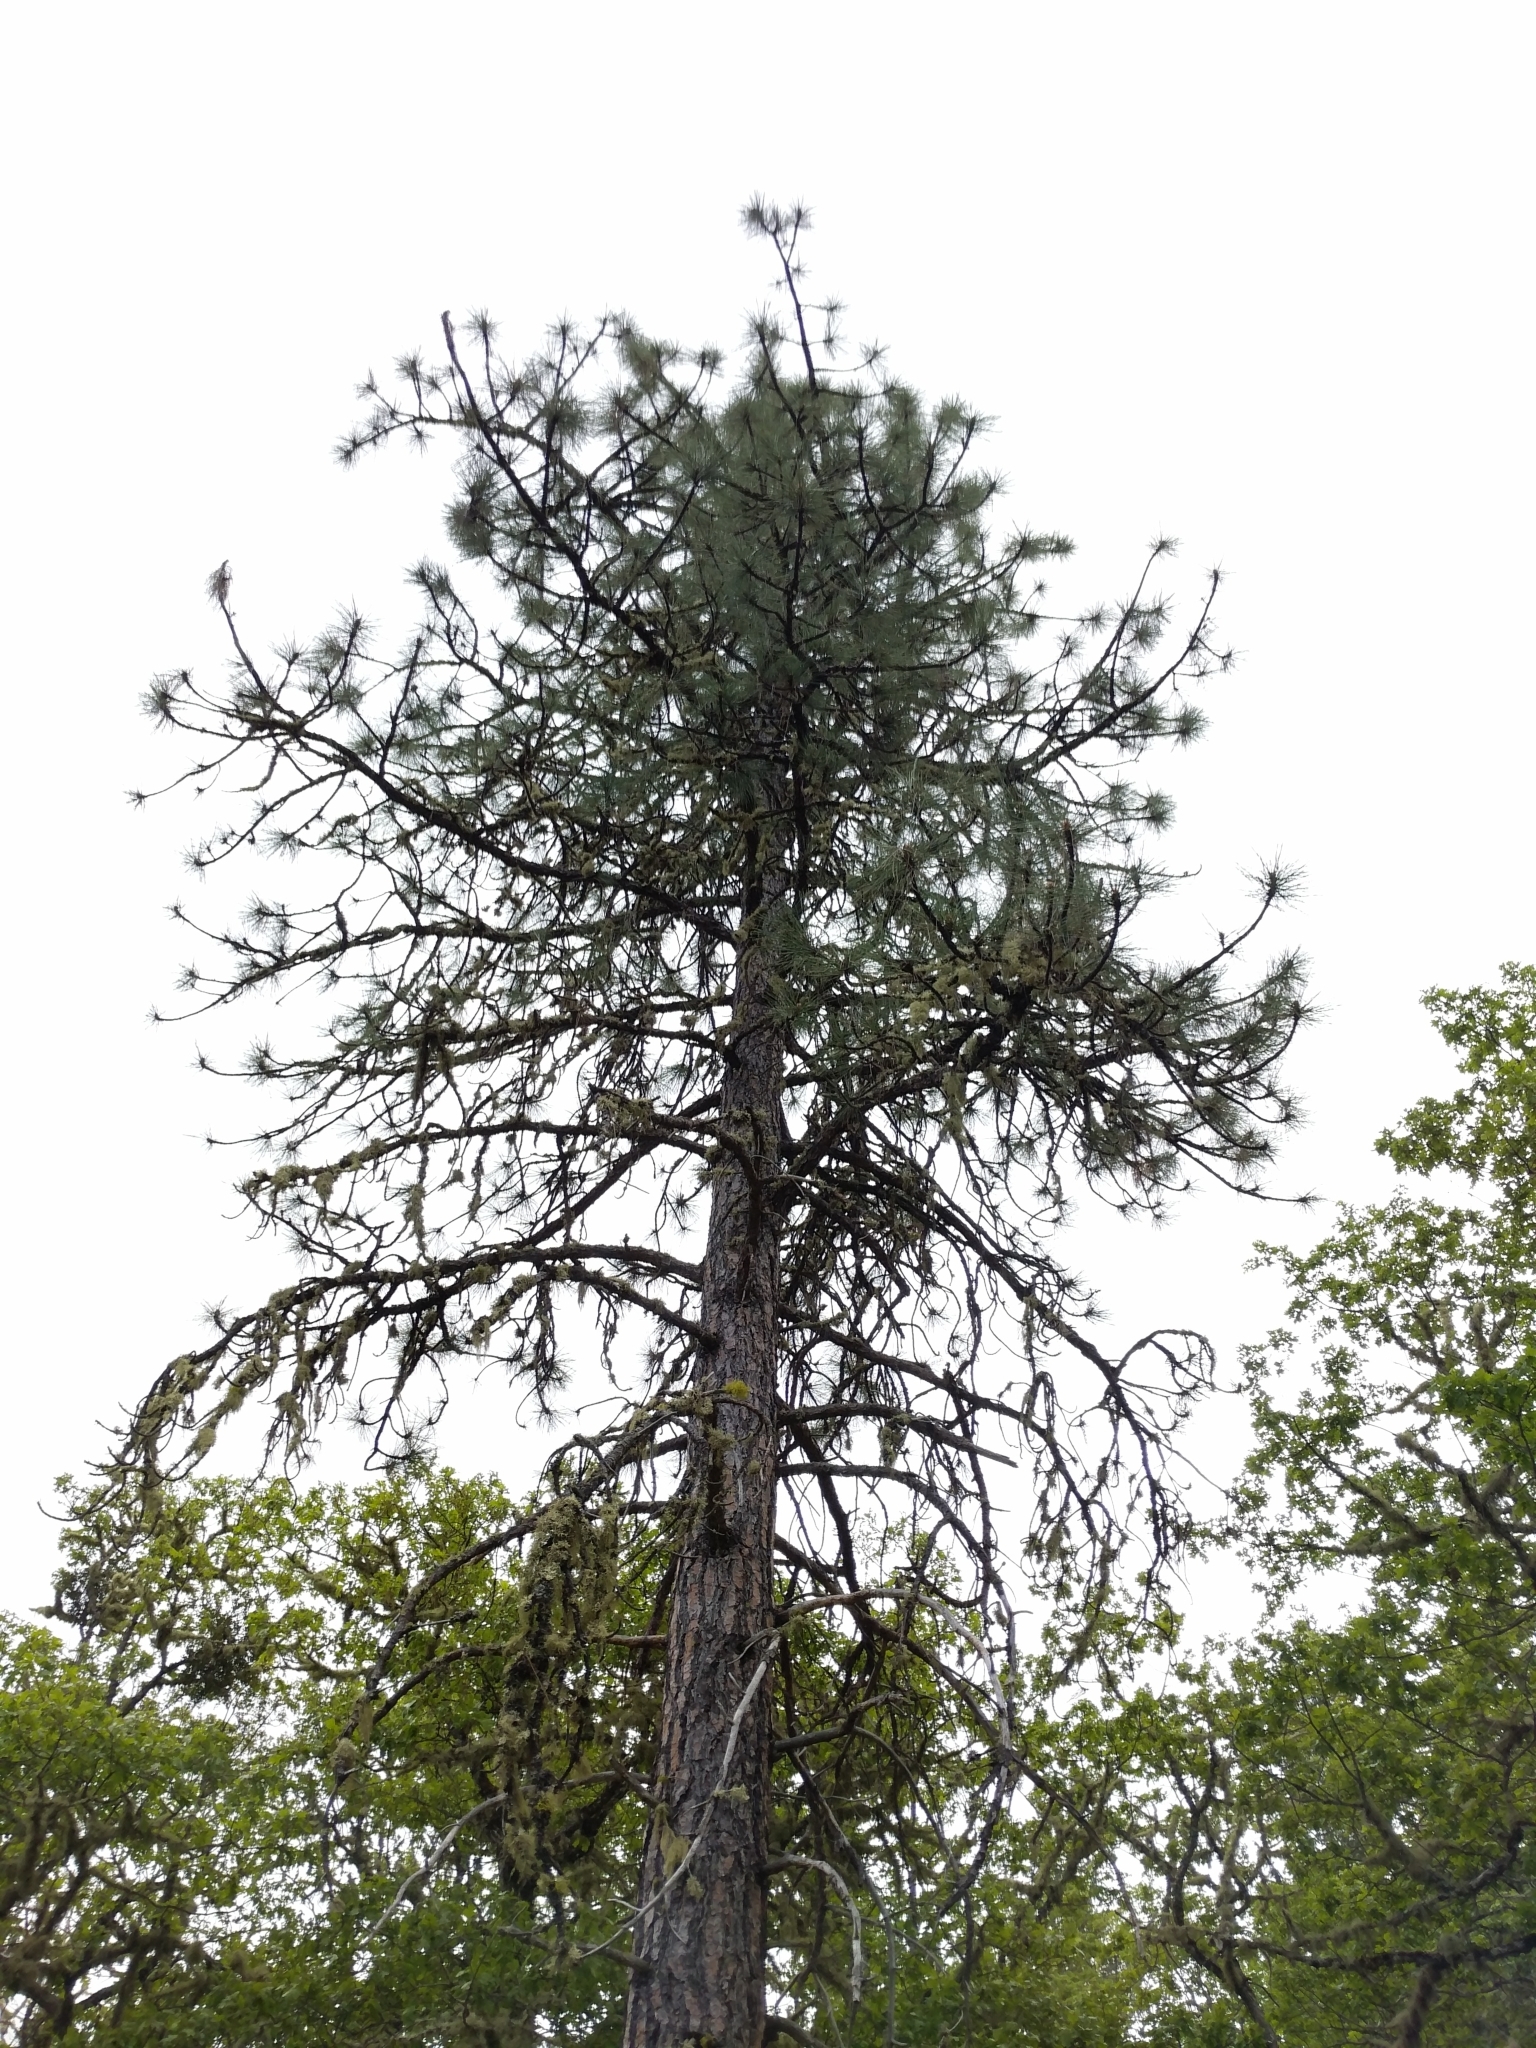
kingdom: Plantae
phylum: Tracheophyta
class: Pinopsida
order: Pinales
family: Pinaceae
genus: Pinus
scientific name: Pinus ponderosa
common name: Western yellow-pine
